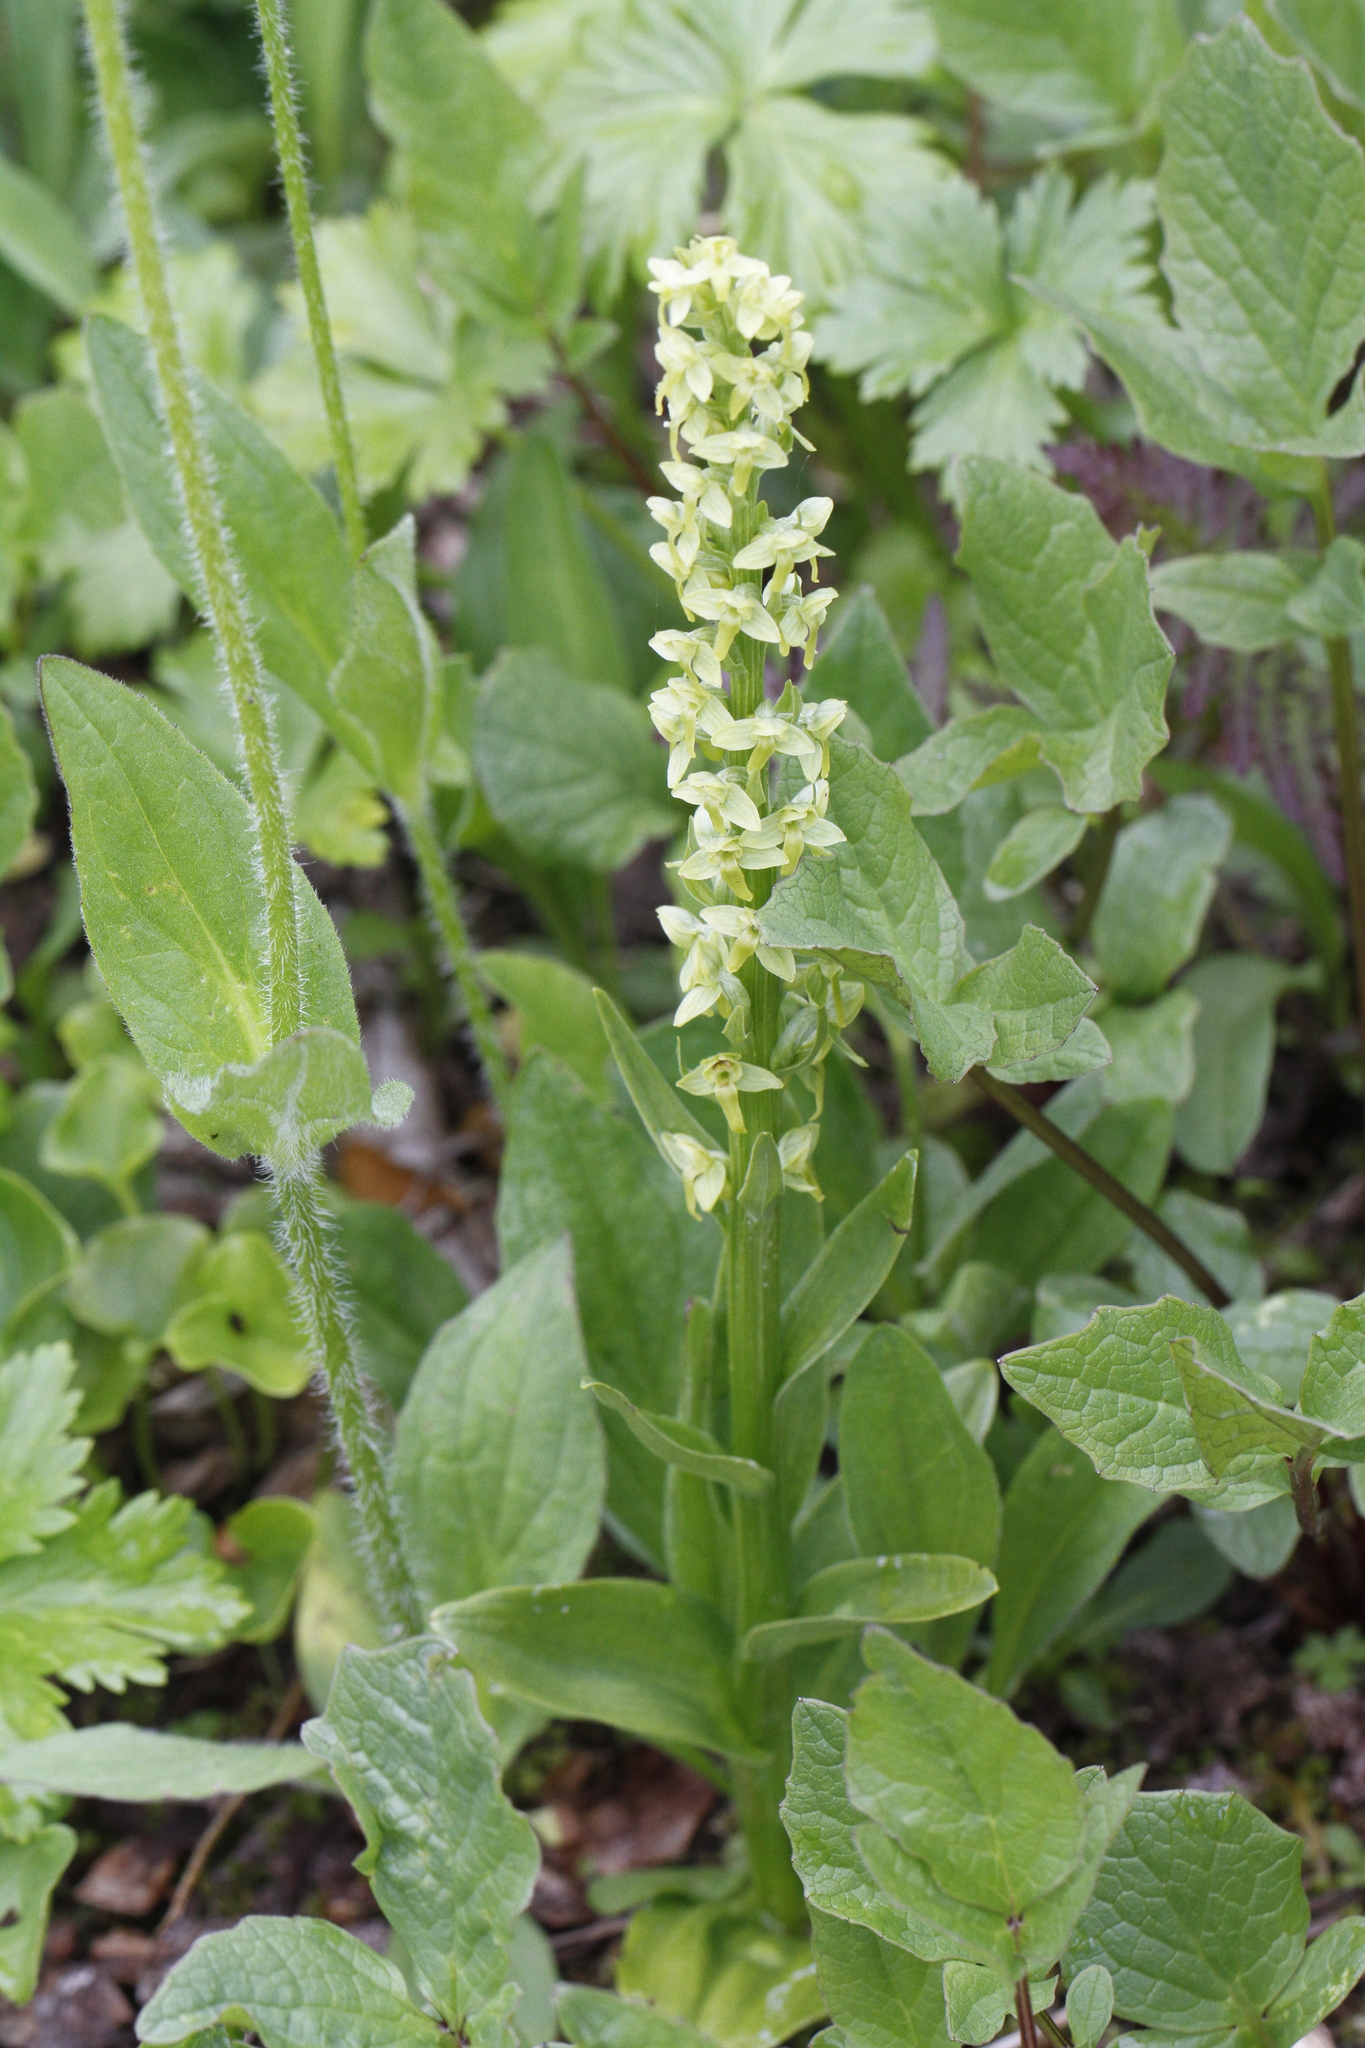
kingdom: Plantae
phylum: Tracheophyta
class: Liliopsida
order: Asparagales
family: Orchidaceae
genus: Platanthera
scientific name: Platanthera stricta
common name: Slender bog orchid
